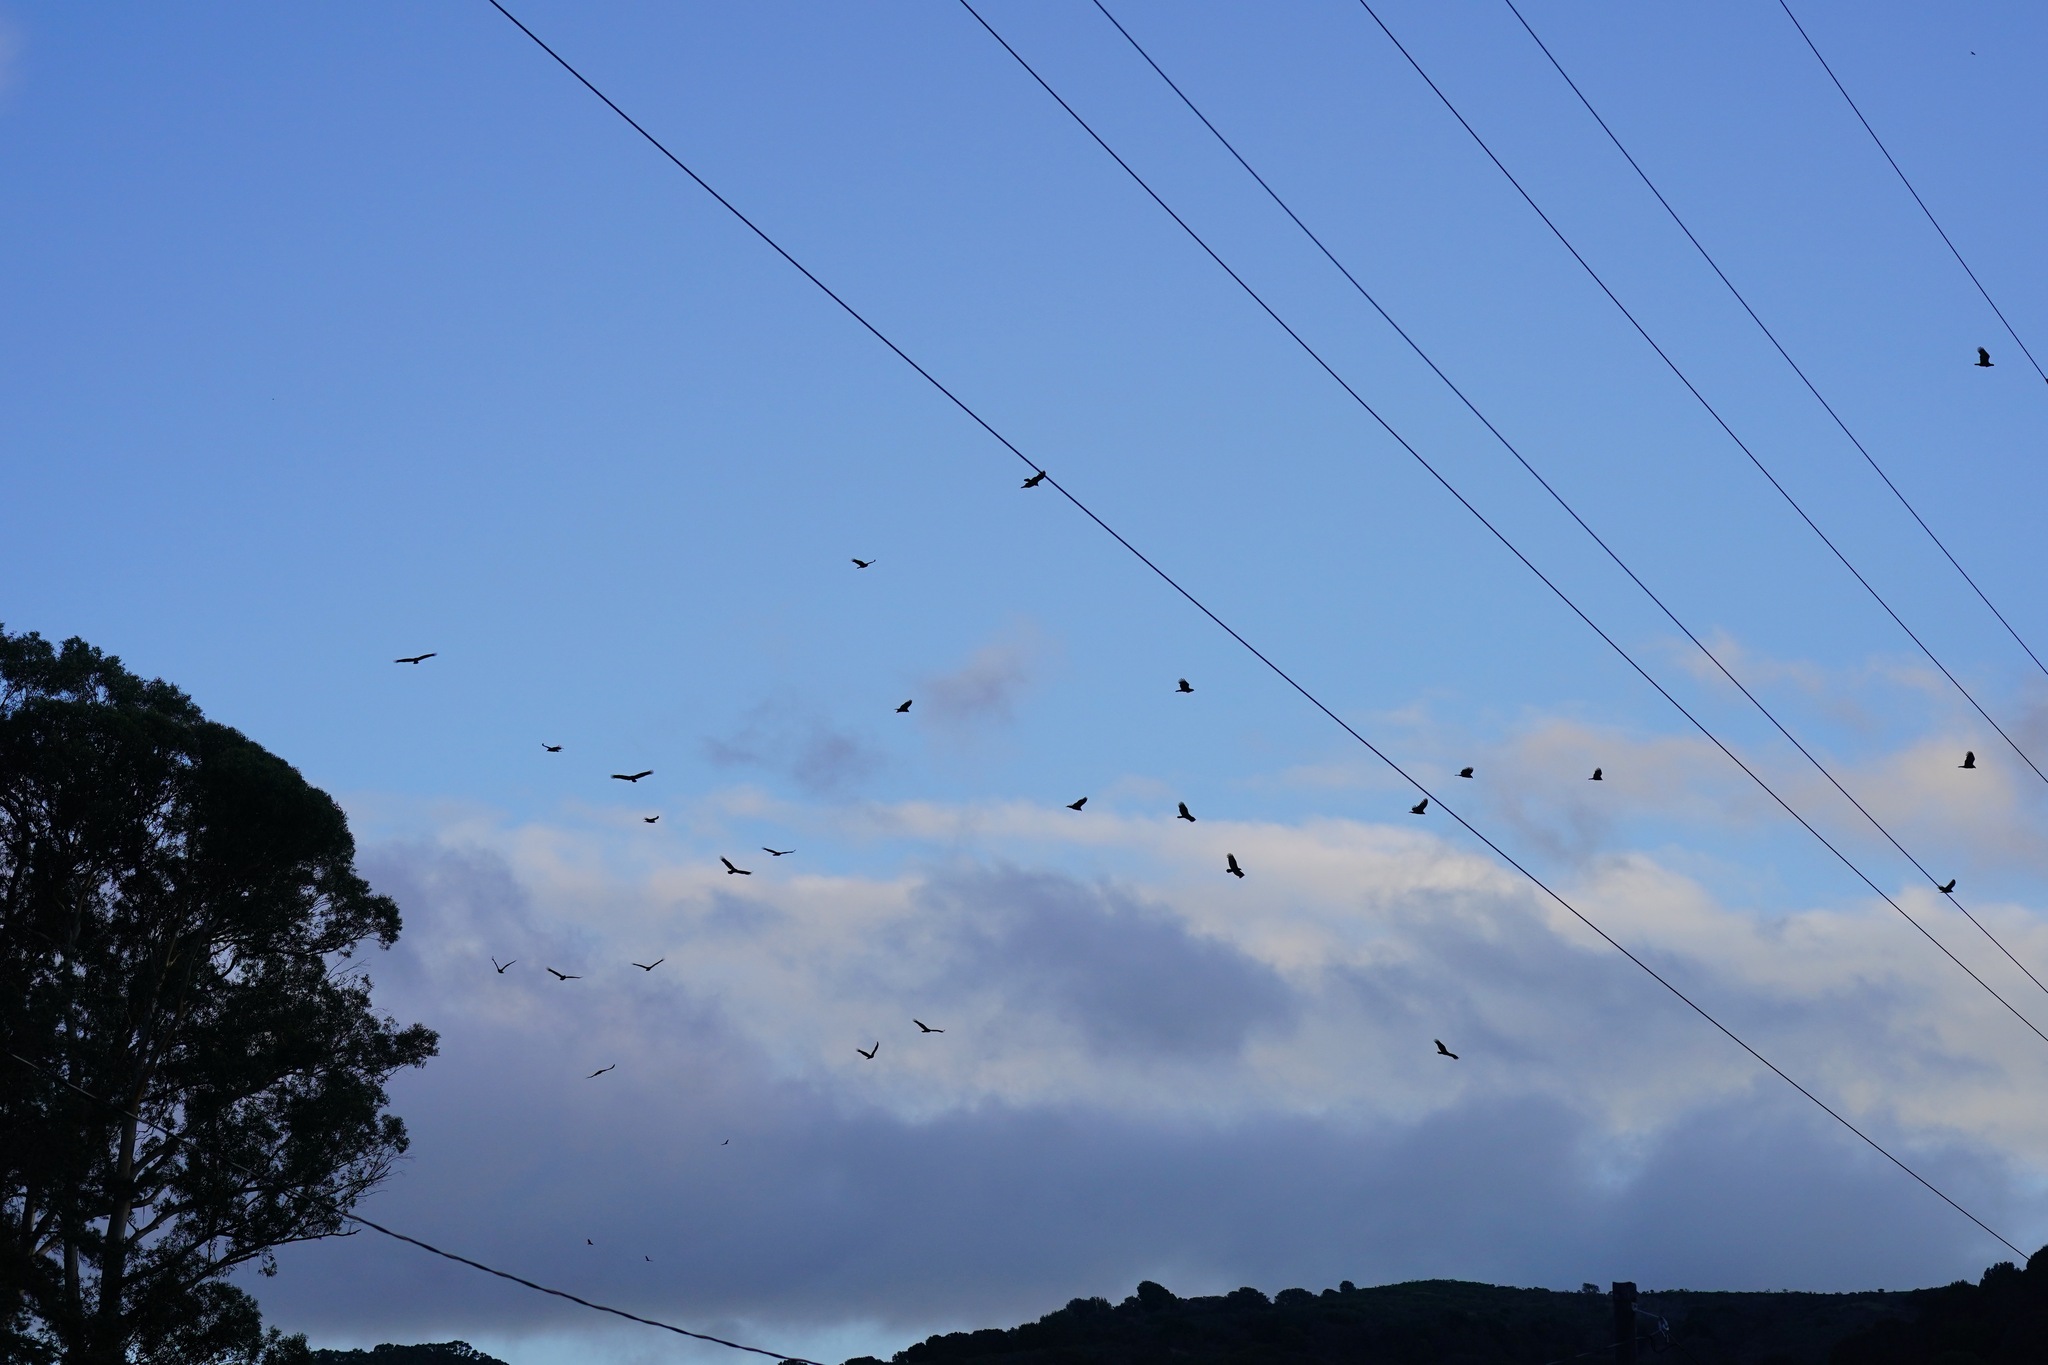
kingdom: Animalia
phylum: Chordata
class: Aves
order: Accipitriformes
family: Cathartidae
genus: Cathartes
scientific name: Cathartes aura
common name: Turkey vulture
